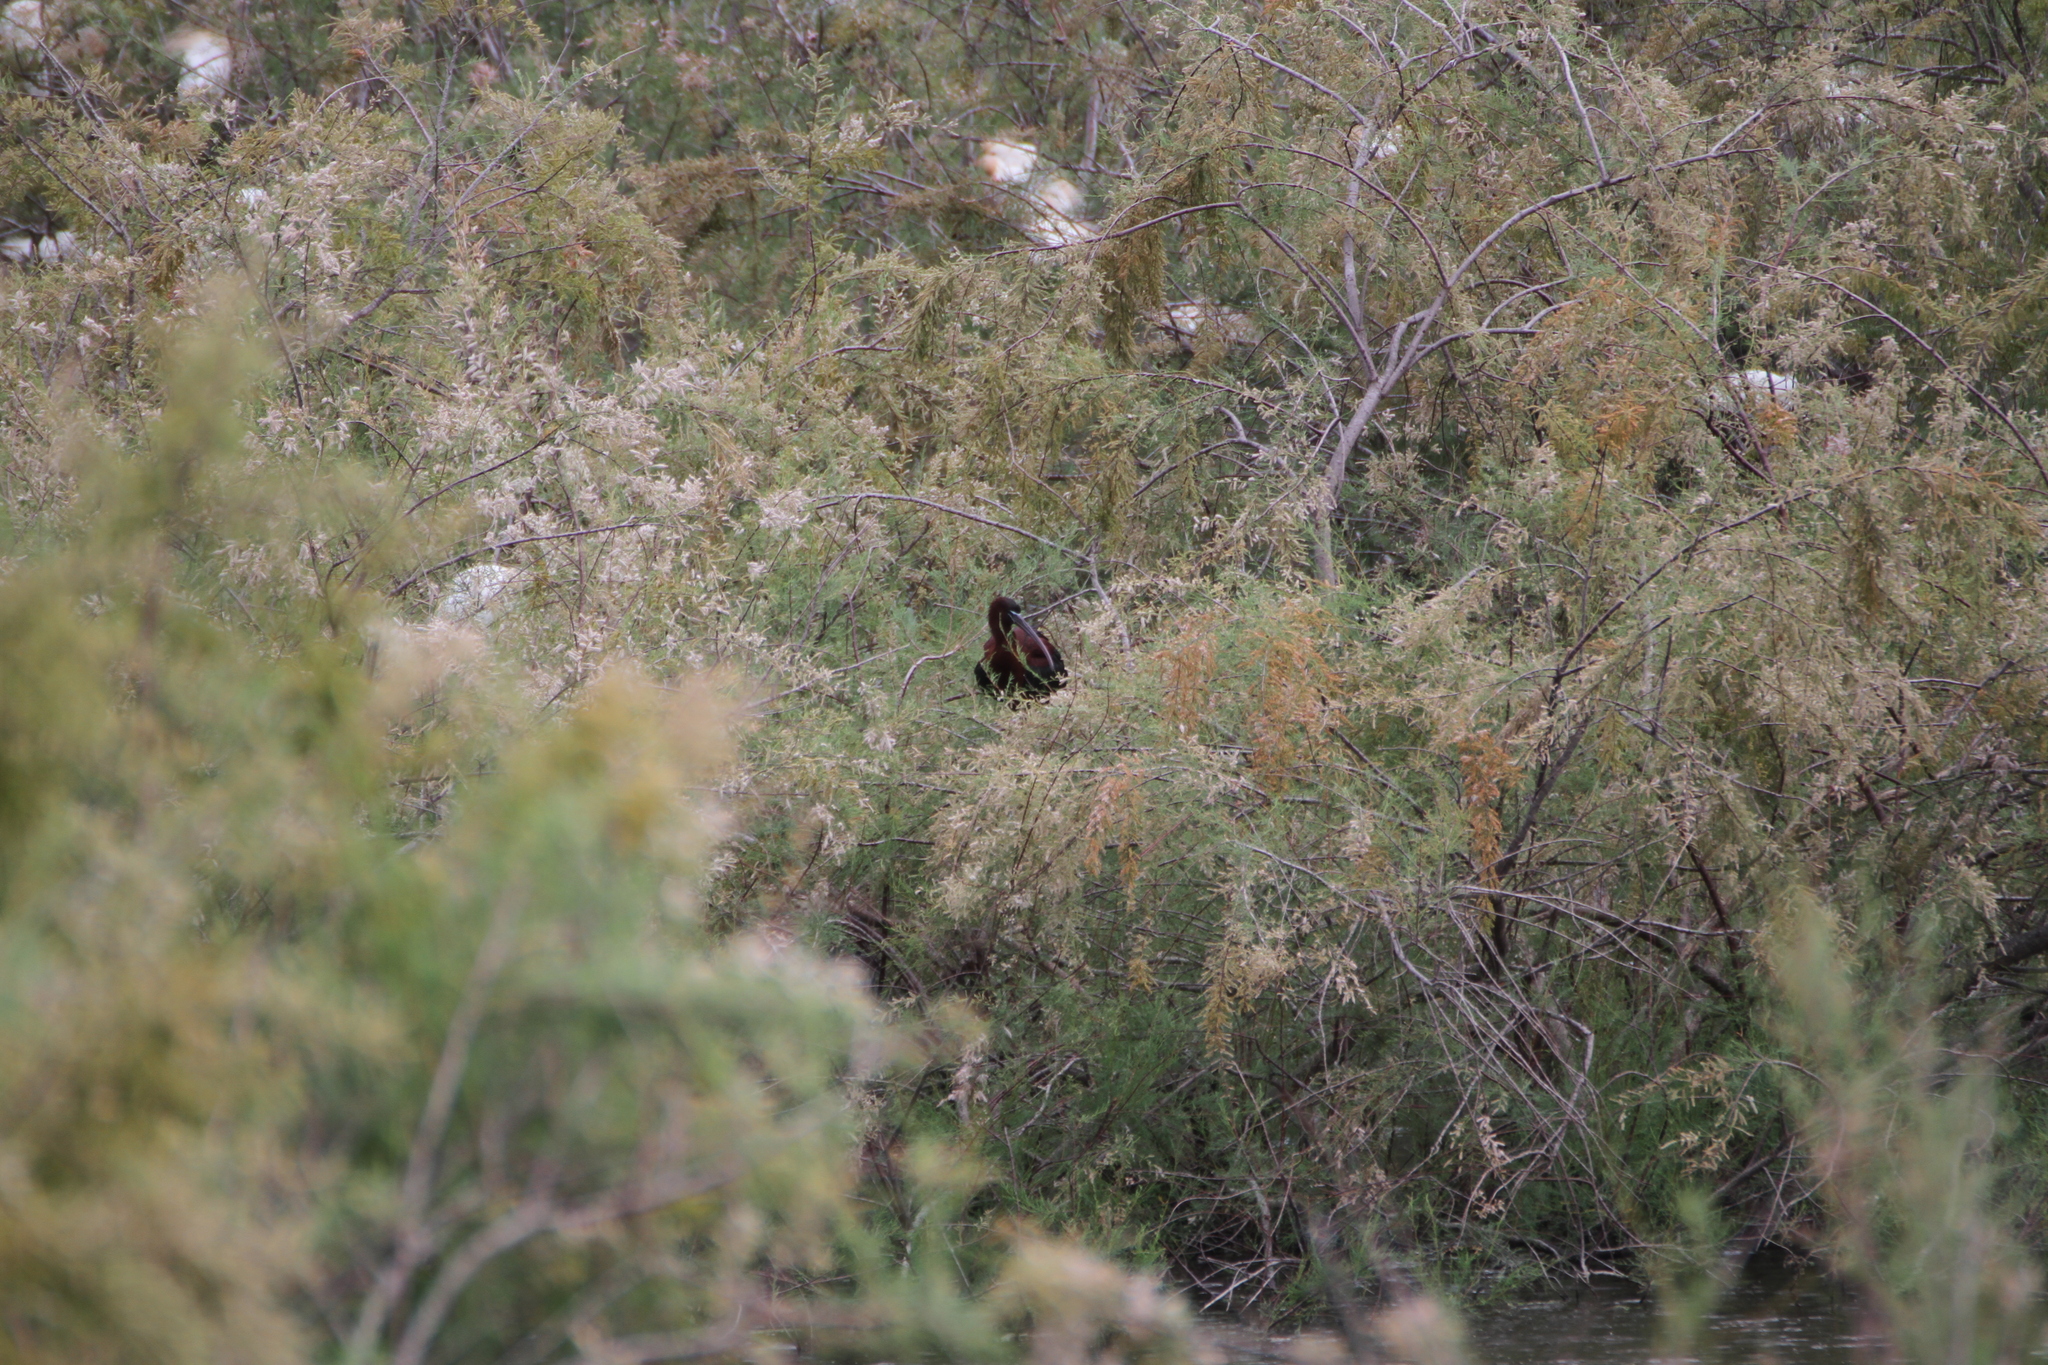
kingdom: Animalia
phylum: Chordata
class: Aves
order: Pelecaniformes
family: Threskiornithidae
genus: Plegadis
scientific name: Plegadis falcinellus
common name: Glossy ibis
